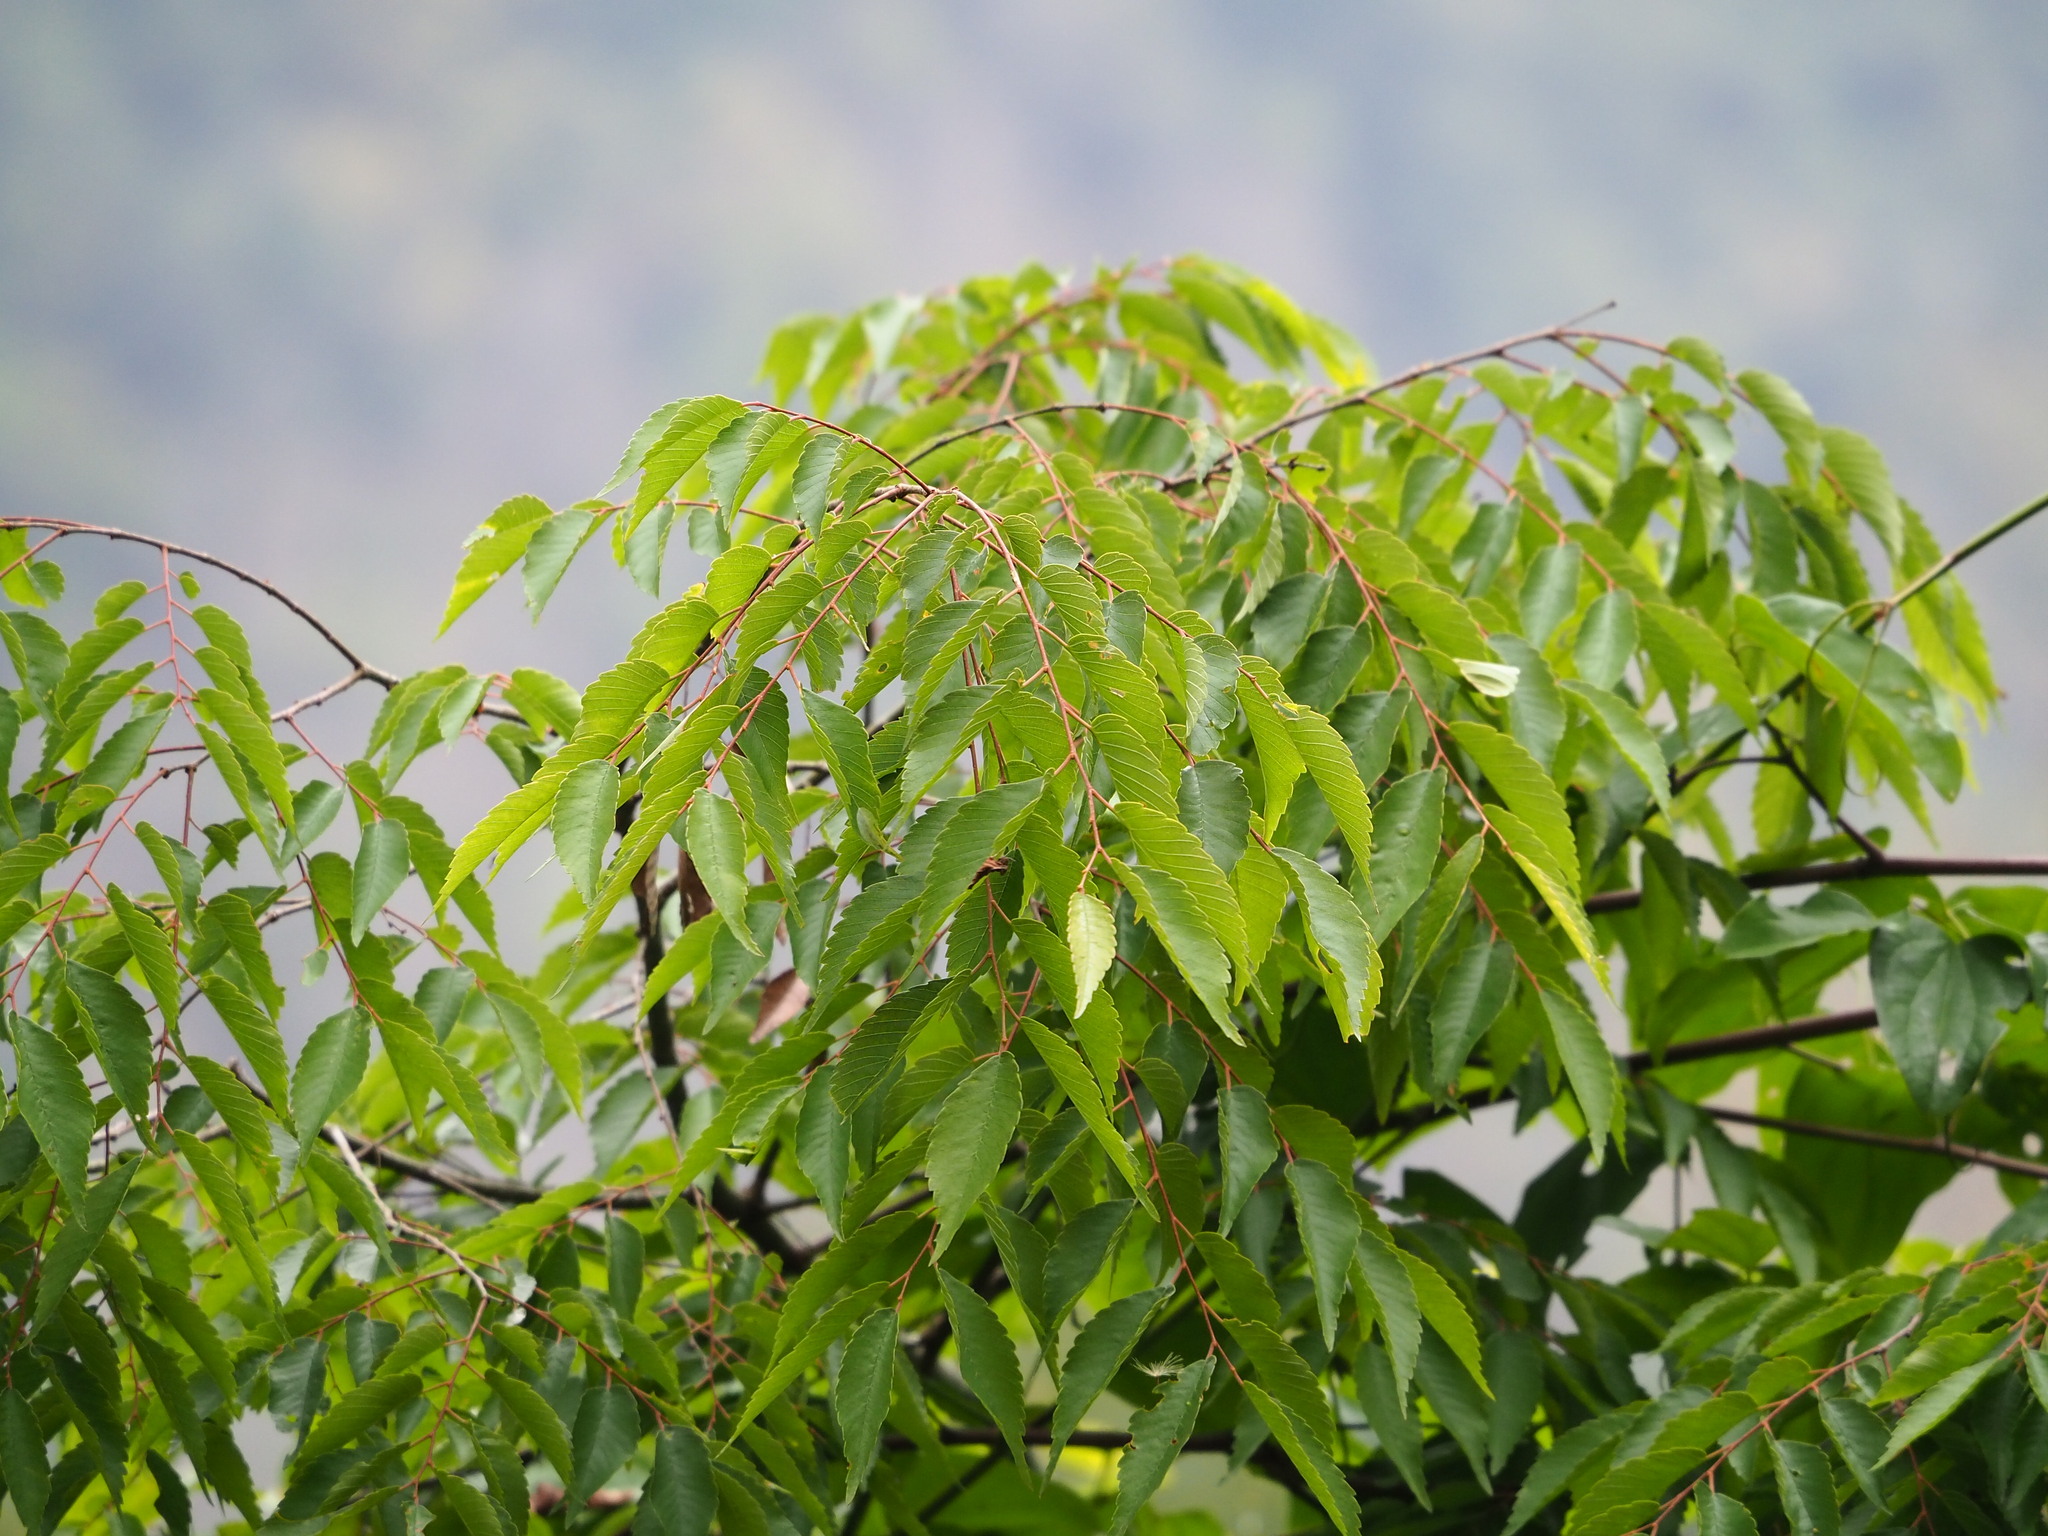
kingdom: Plantae
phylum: Tracheophyta
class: Magnoliopsida
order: Rosales
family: Ulmaceae
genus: Zelkova
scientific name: Zelkova serrata
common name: Japanese zelkova
